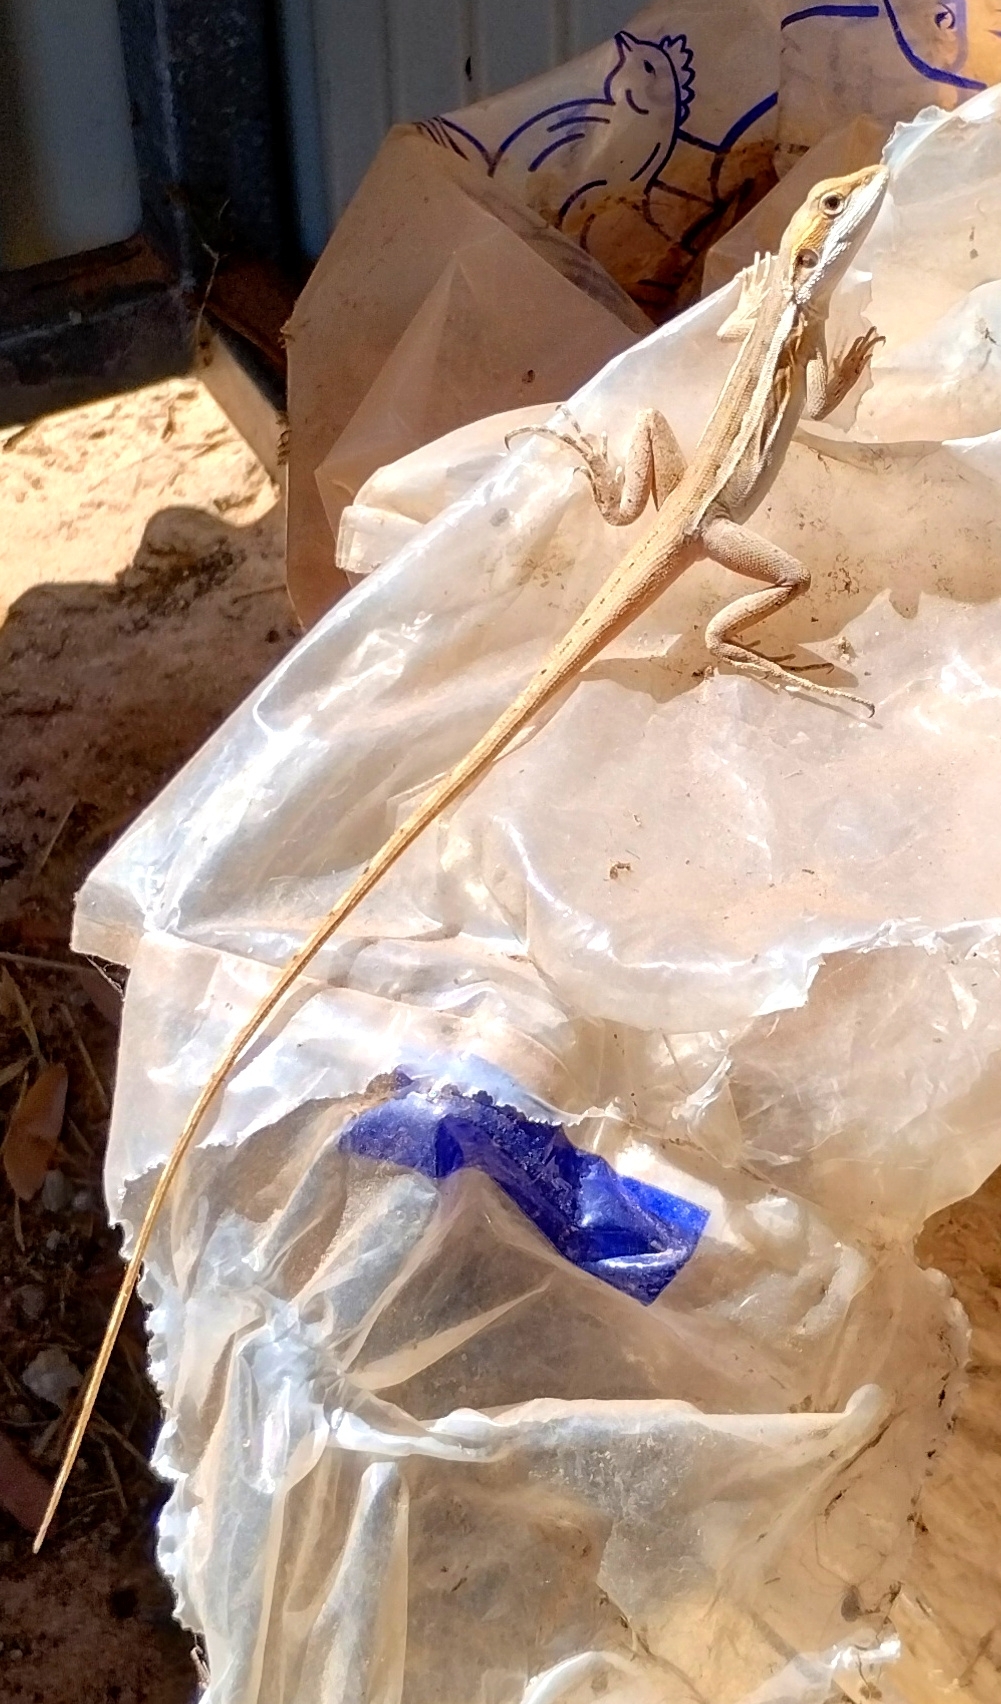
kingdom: Animalia
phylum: Chordata
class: Squamata
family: Agamidae
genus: Lophognathus
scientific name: Lophognathus gilberti
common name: Gilbert's dragon
